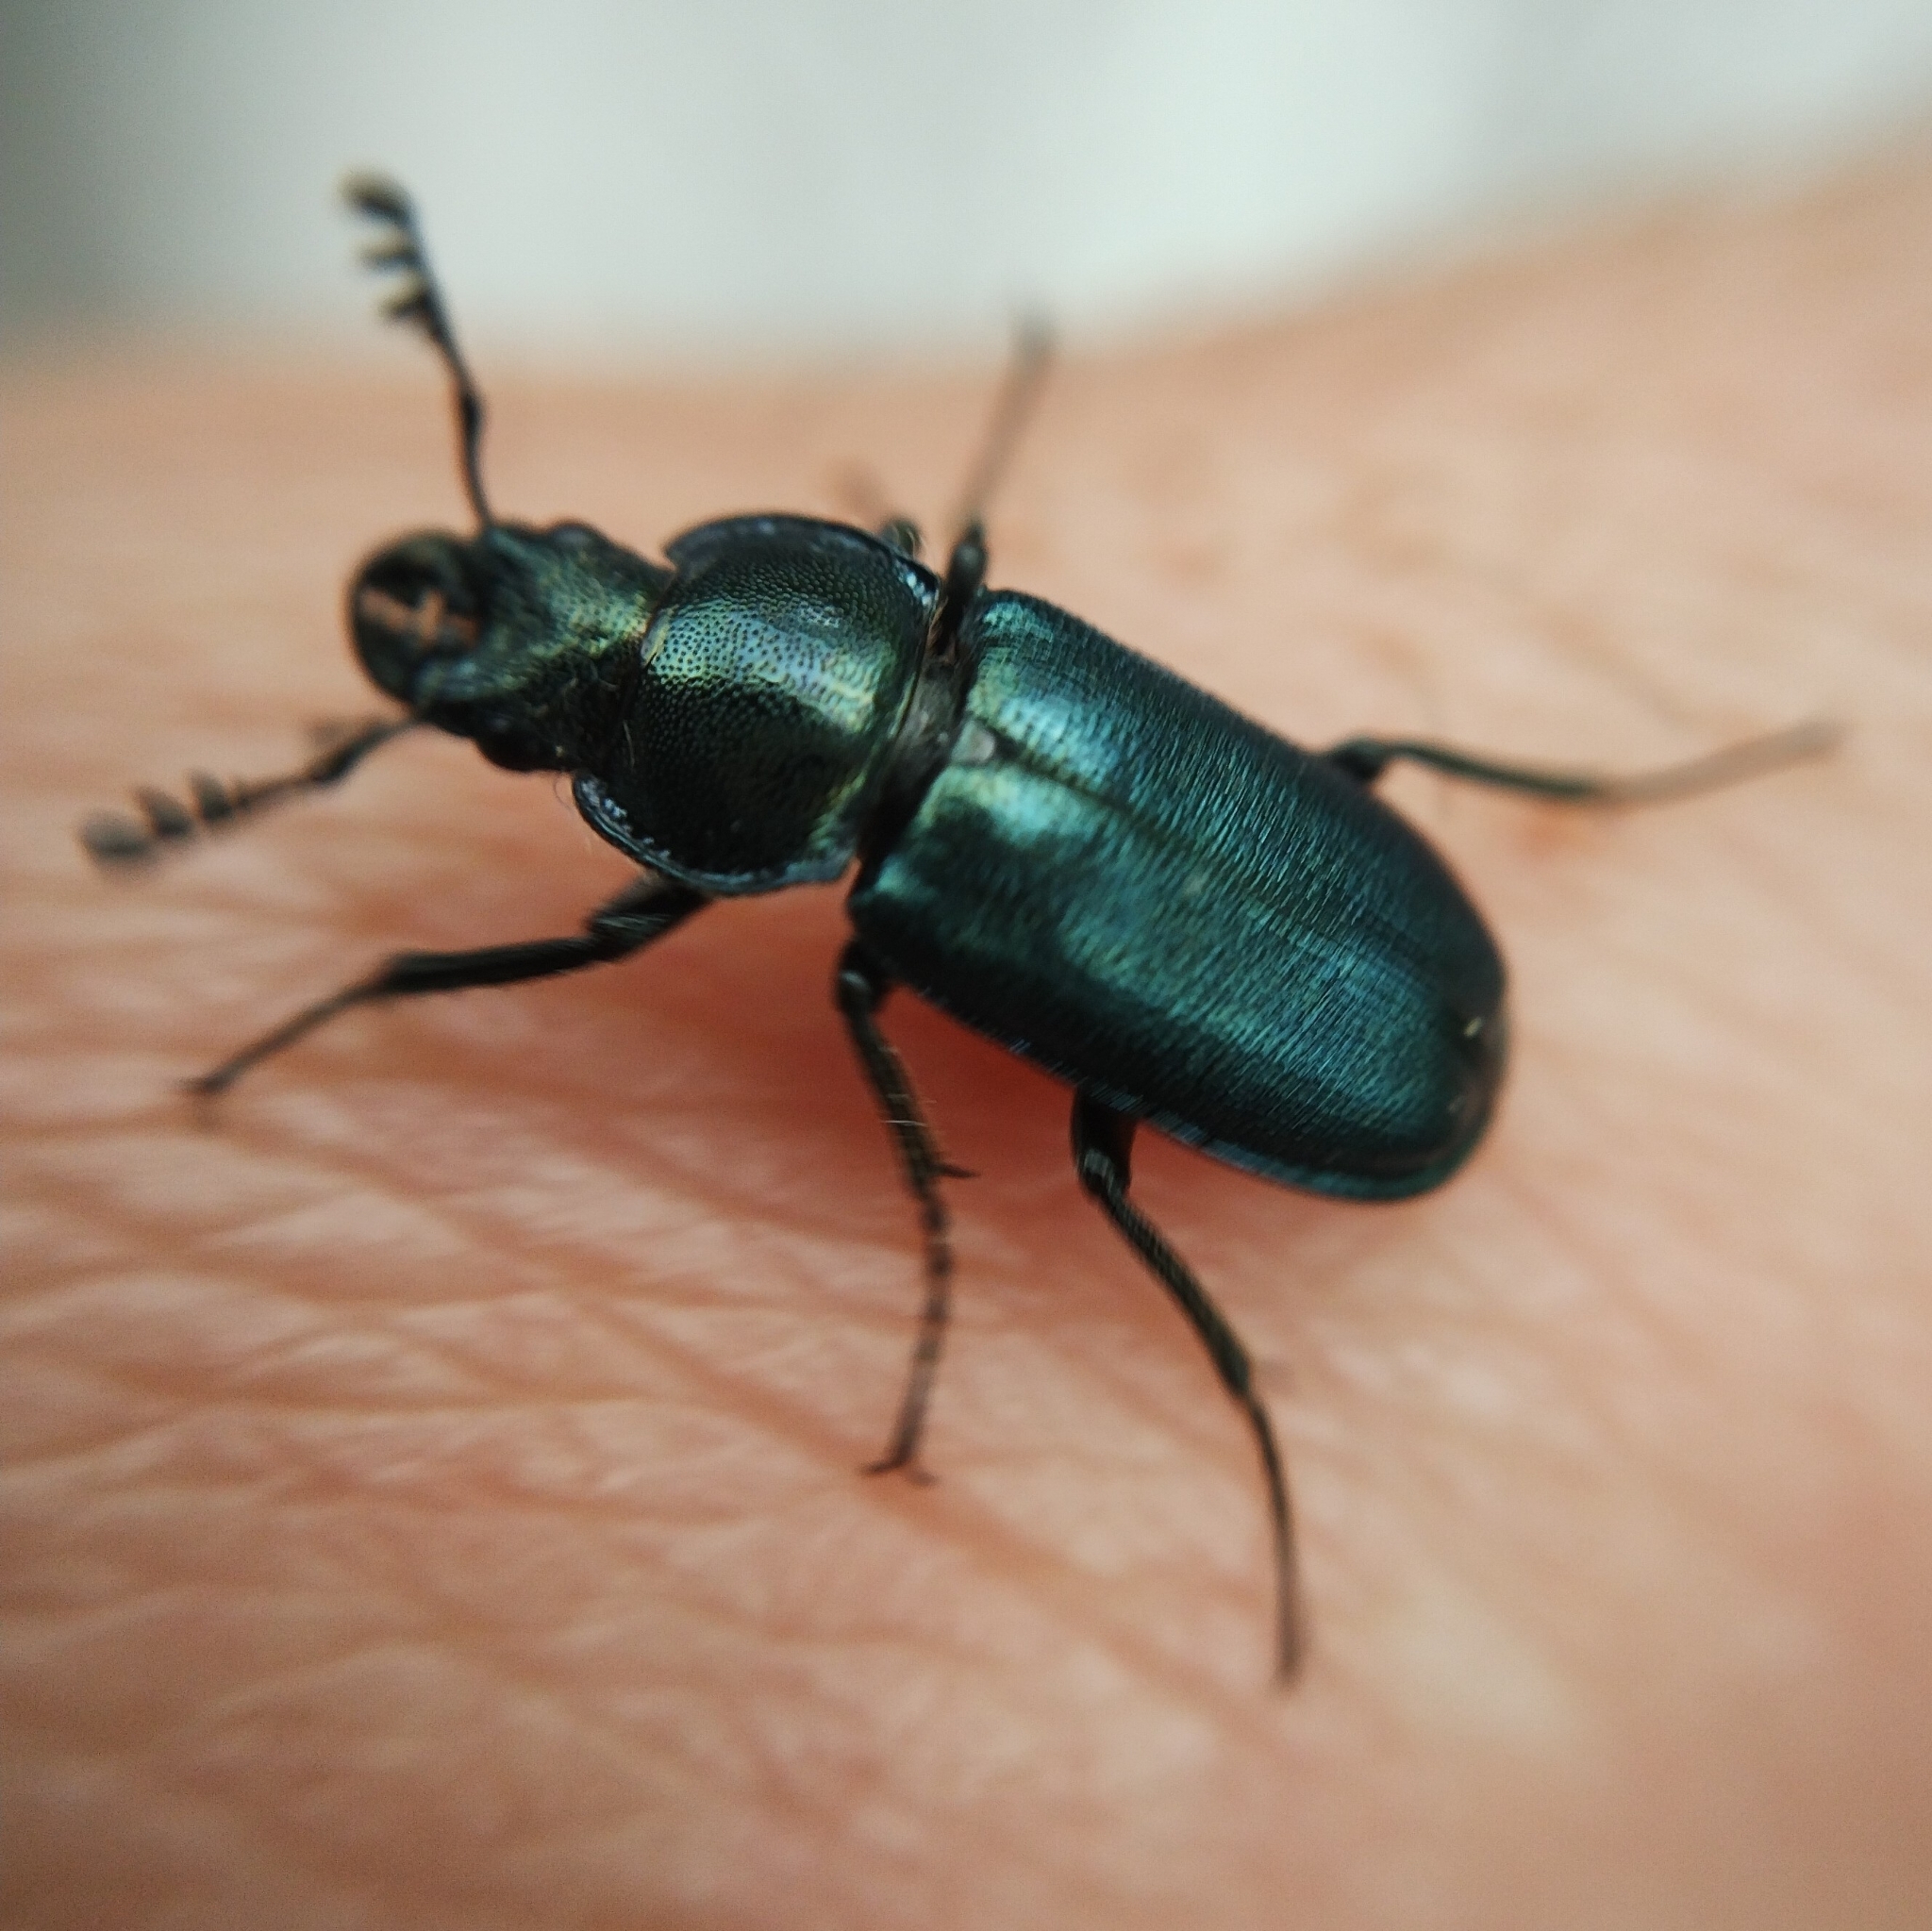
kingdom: Animalia
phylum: Arthropoda
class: Insecta
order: Coleoptera
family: Lucanidae
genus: Platycerus
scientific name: Platycerus caraboides
